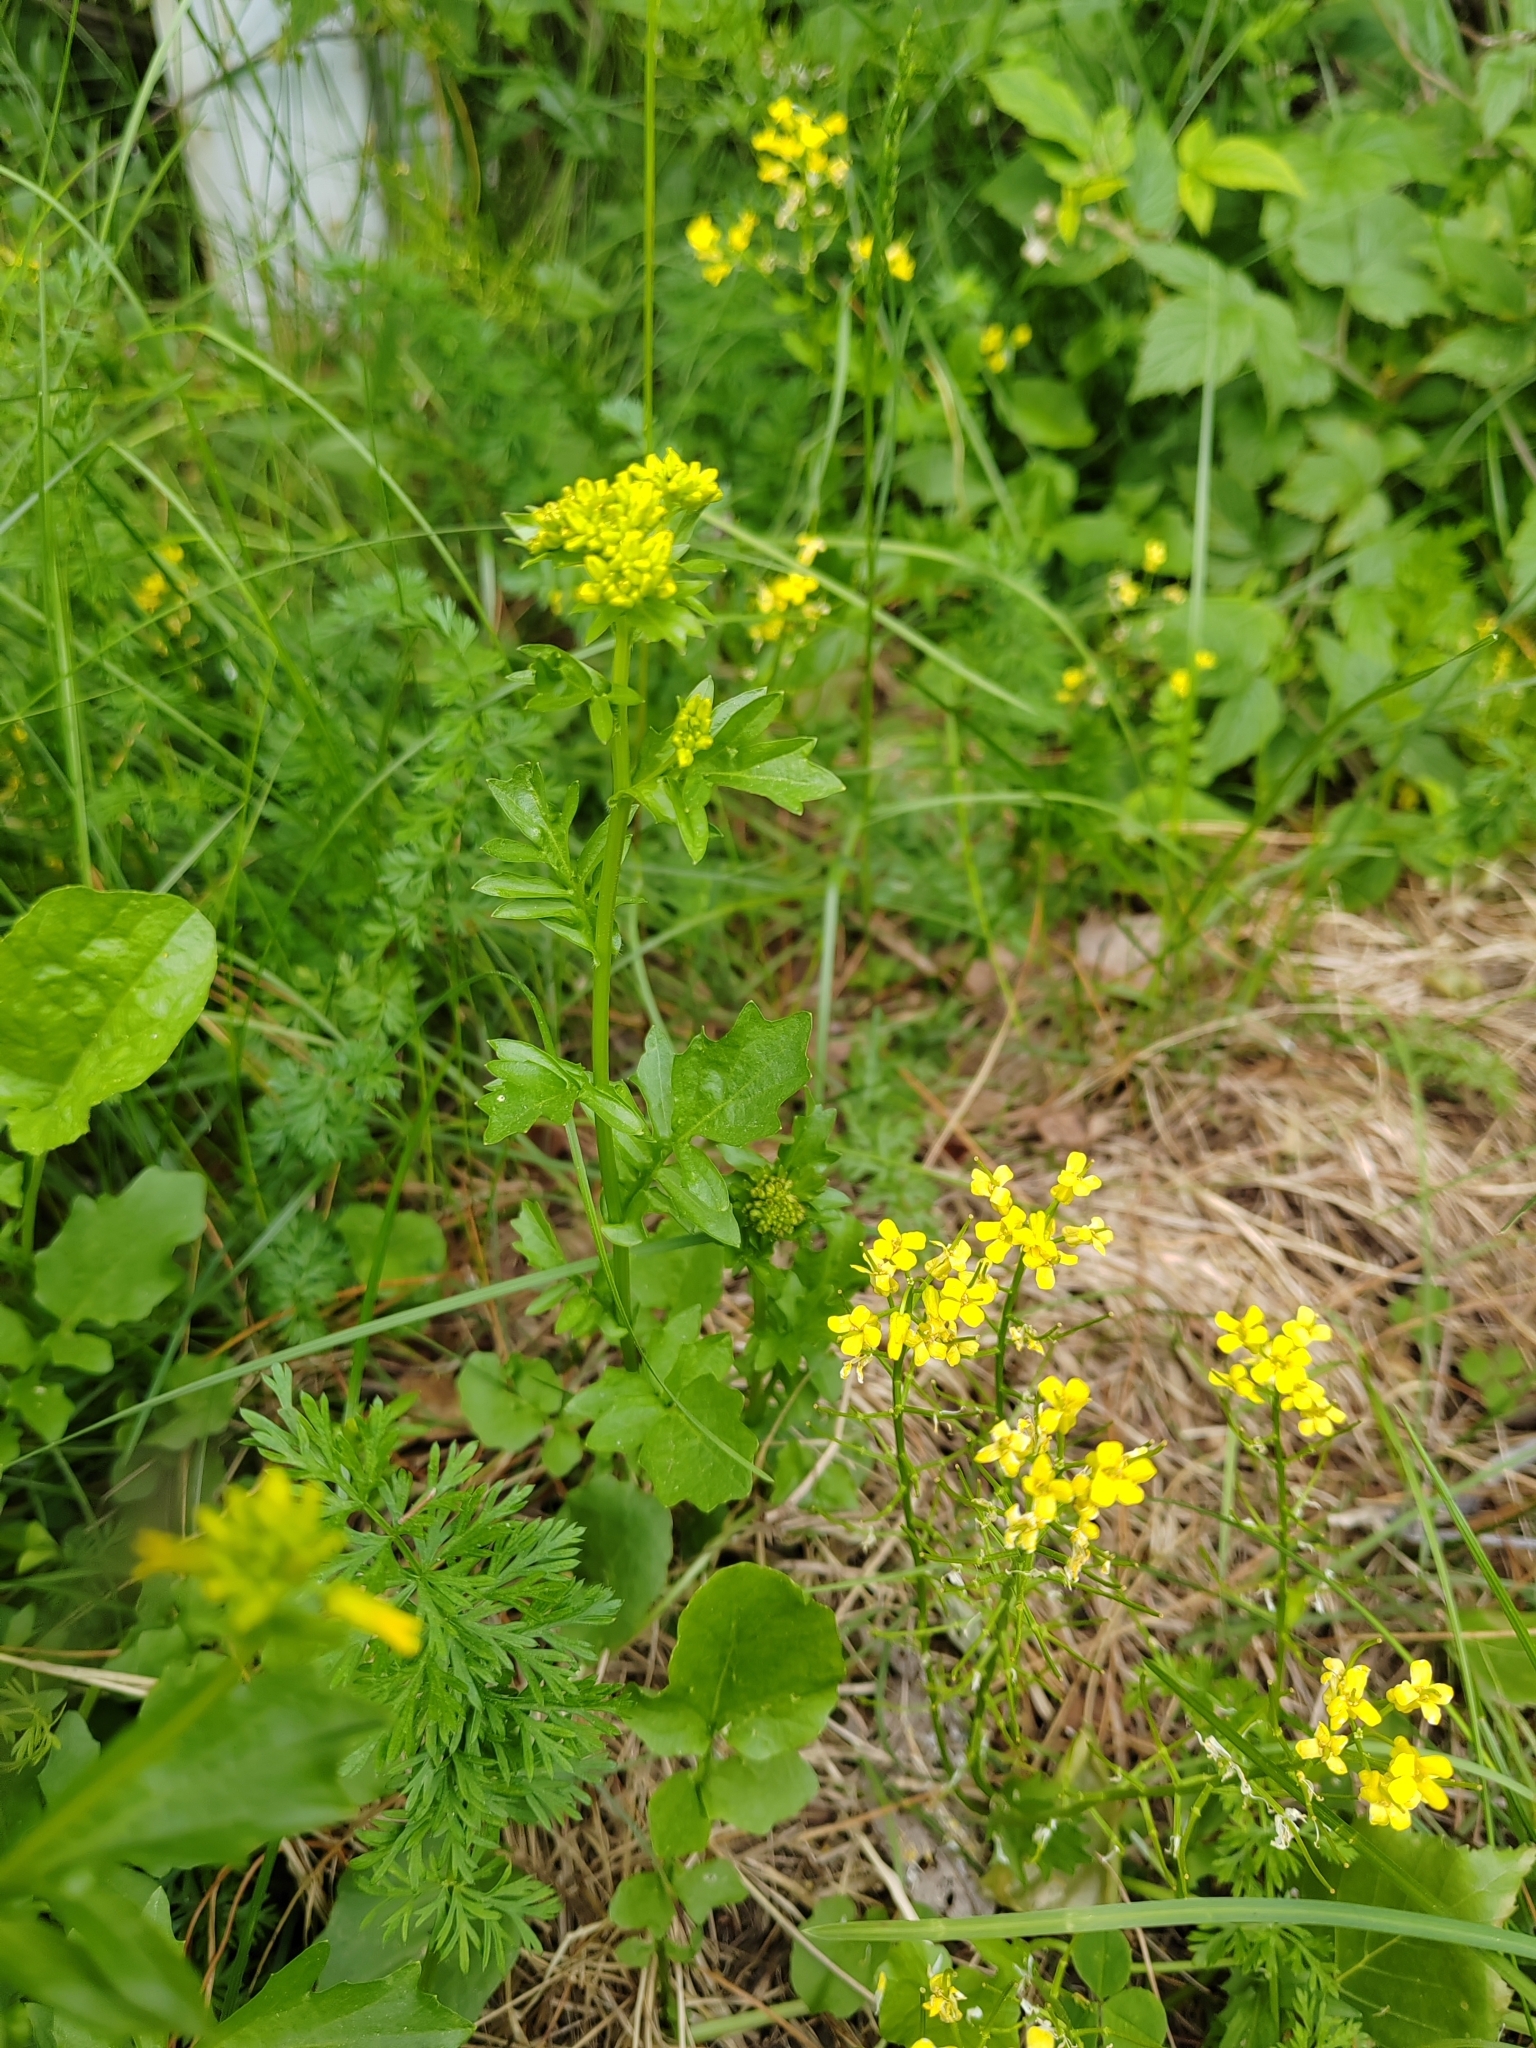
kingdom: Plantae
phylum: Tracheophyta
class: Magnoliopsida
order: Brassicales
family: Brassicaceae
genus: Barbarea
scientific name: Barbarea vulgaris
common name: Cressy-greens
